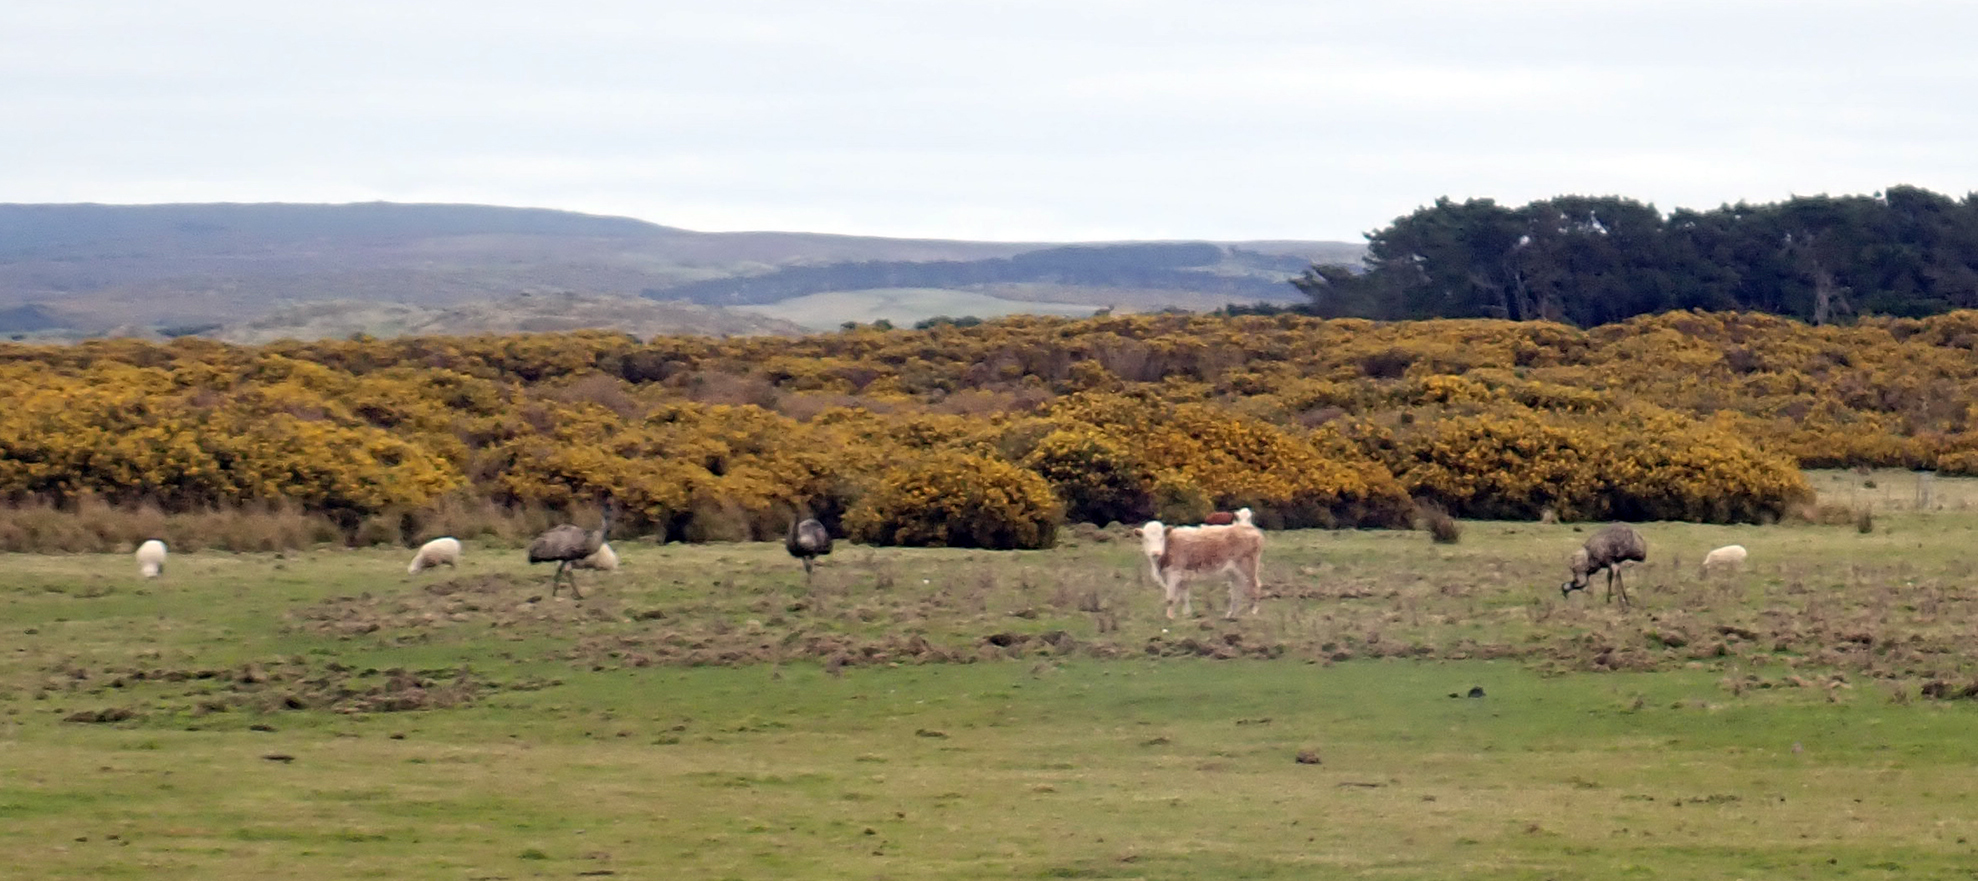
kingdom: Animalia
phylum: Chordata
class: Aves
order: Casuariiformes
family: Dromaiidae
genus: Dromaius
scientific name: Dromaius novaehollandiae
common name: Emu
